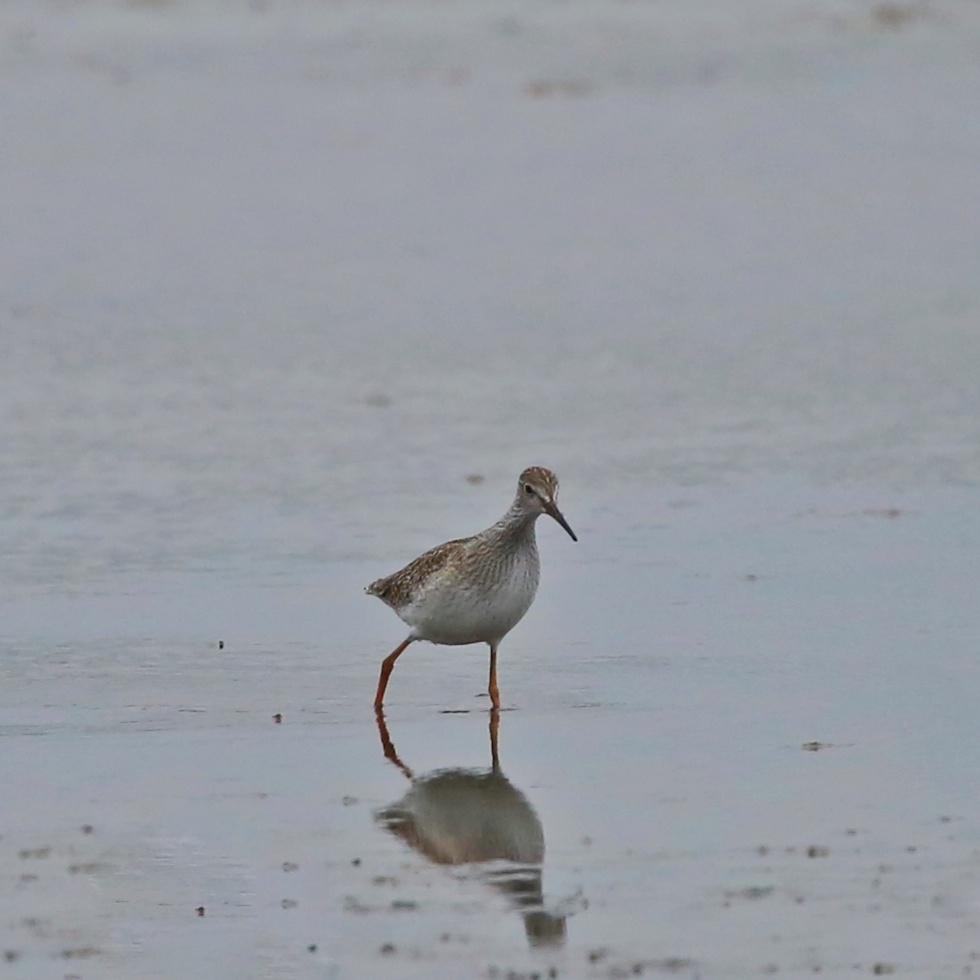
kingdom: Animalia
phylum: Chordata
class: Aves
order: Charadriiformes
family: Scolopacidae
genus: Tringa
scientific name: Tringa totanus
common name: Common redshank
